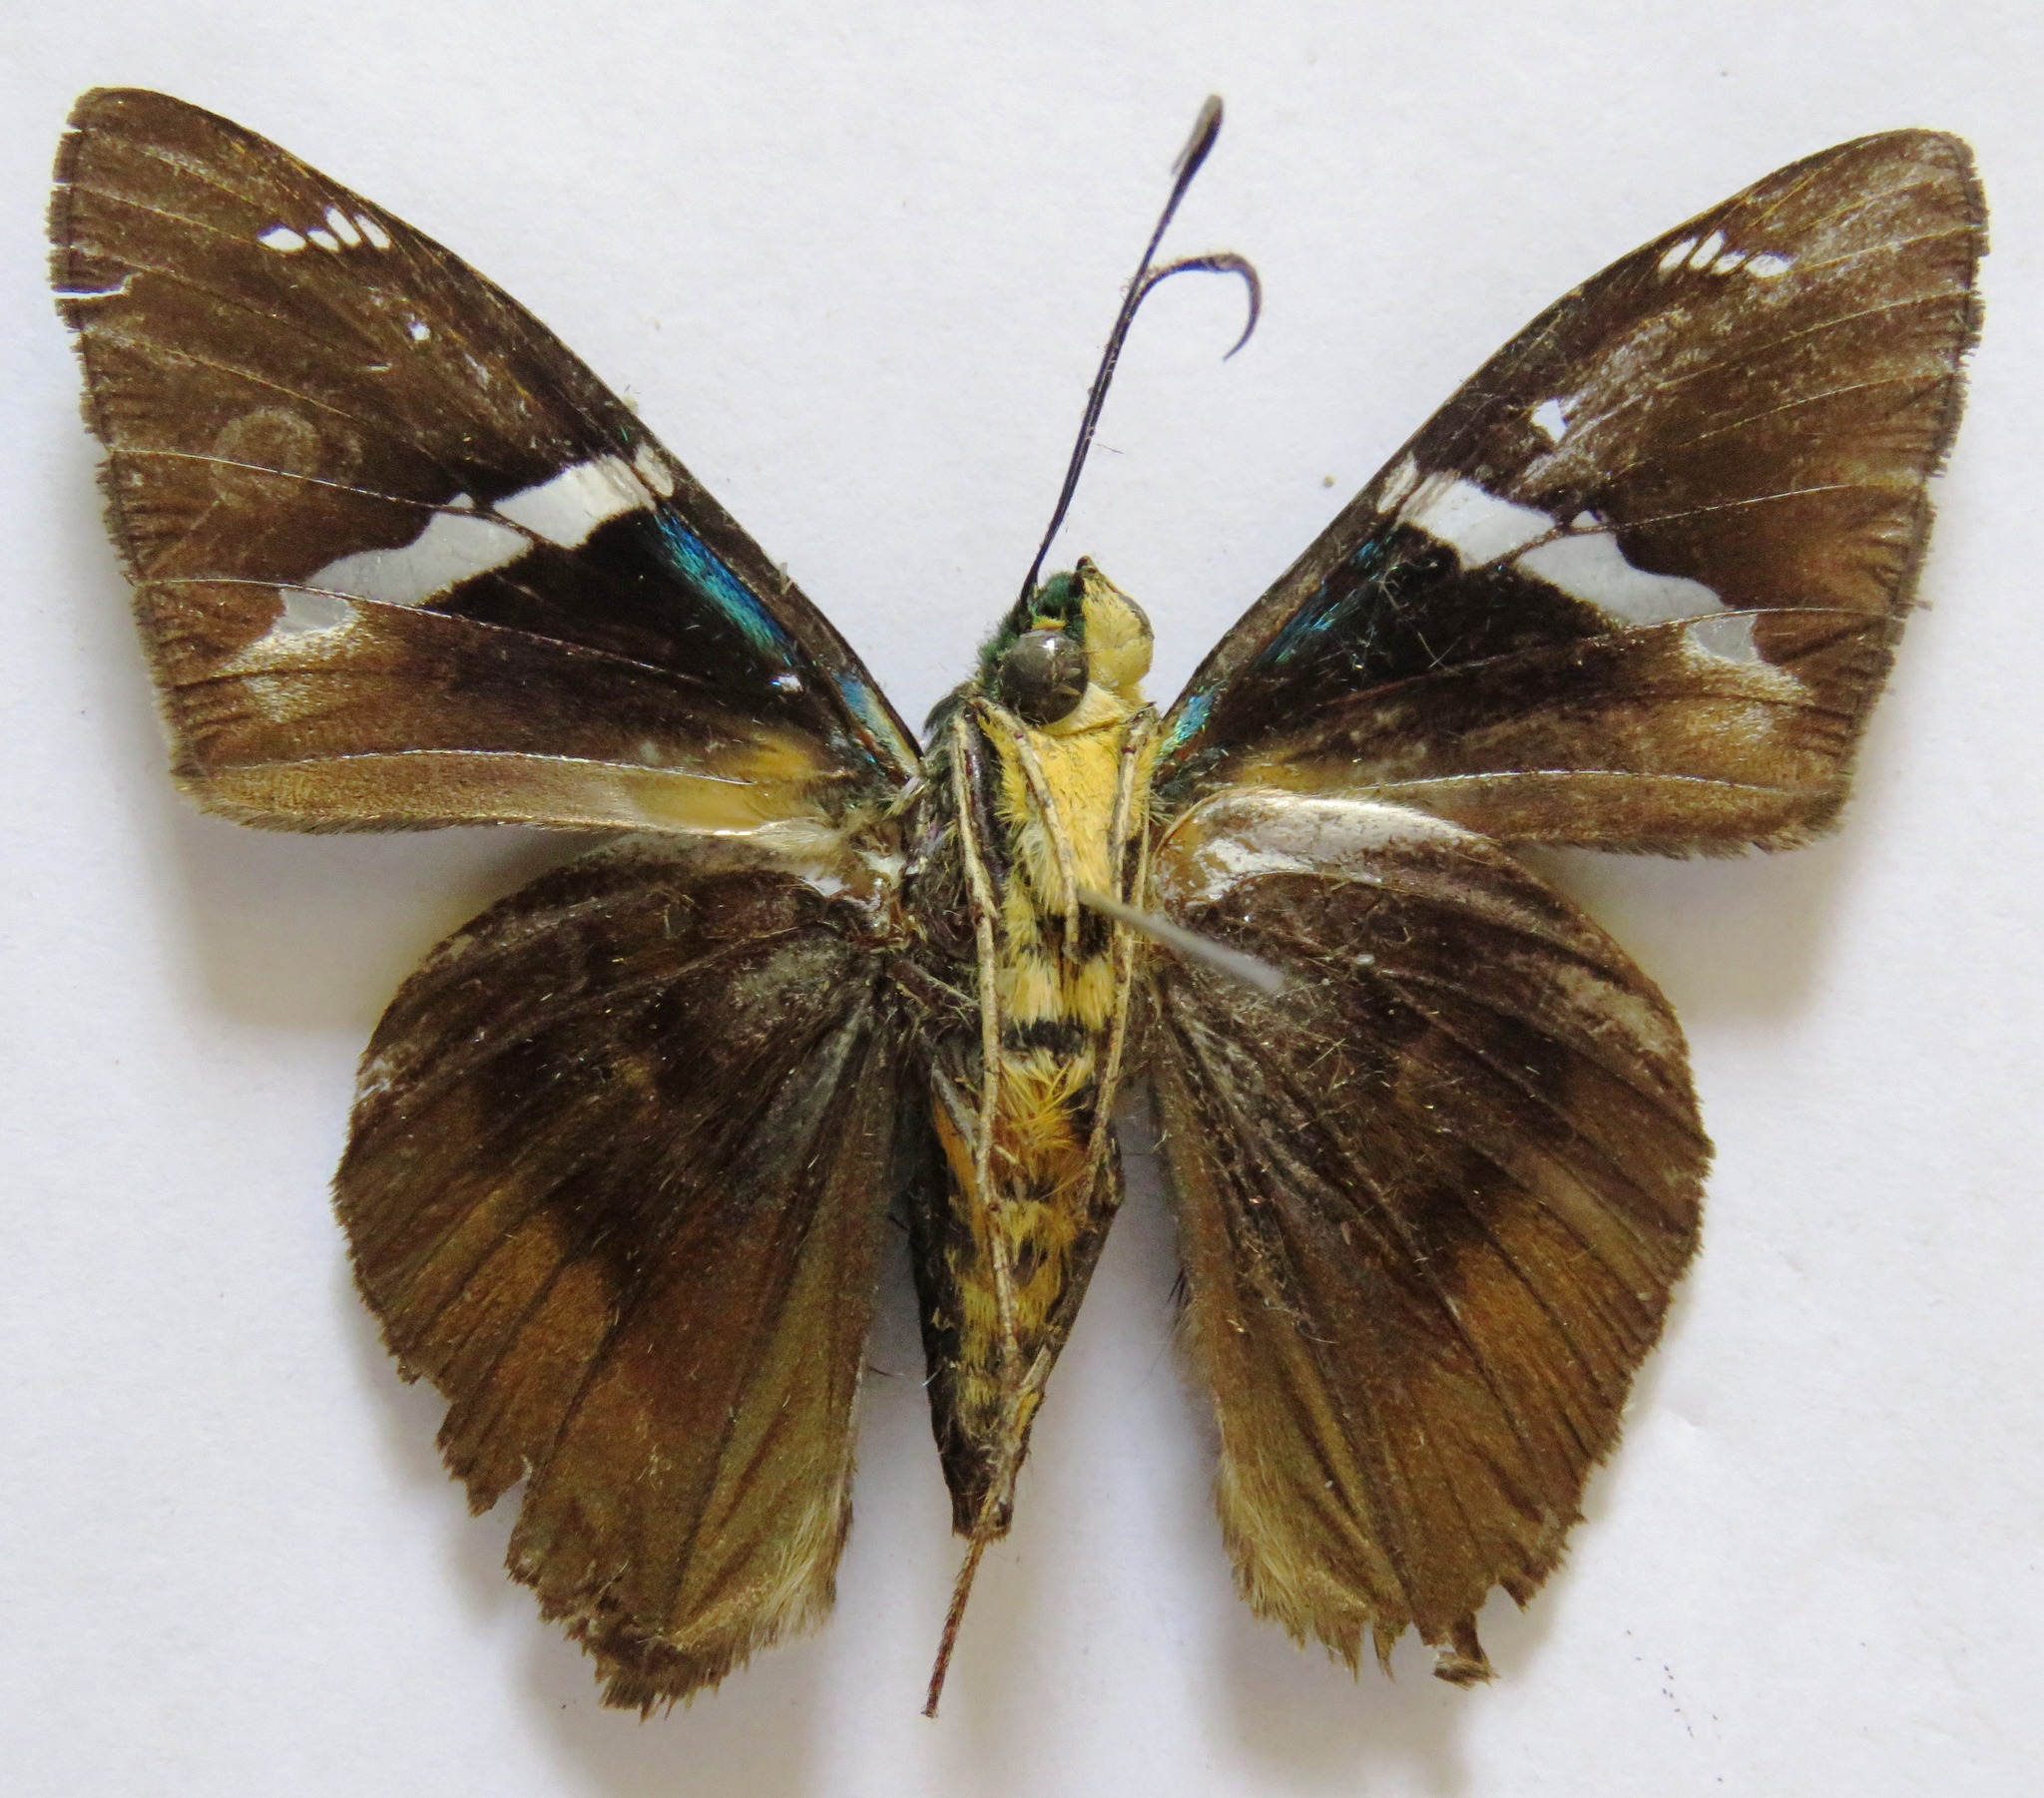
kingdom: Animalia
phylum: Arthropoda
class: Arachnida
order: Scorpiones
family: Bothriuridae
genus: Telegonus
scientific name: Telegonus
